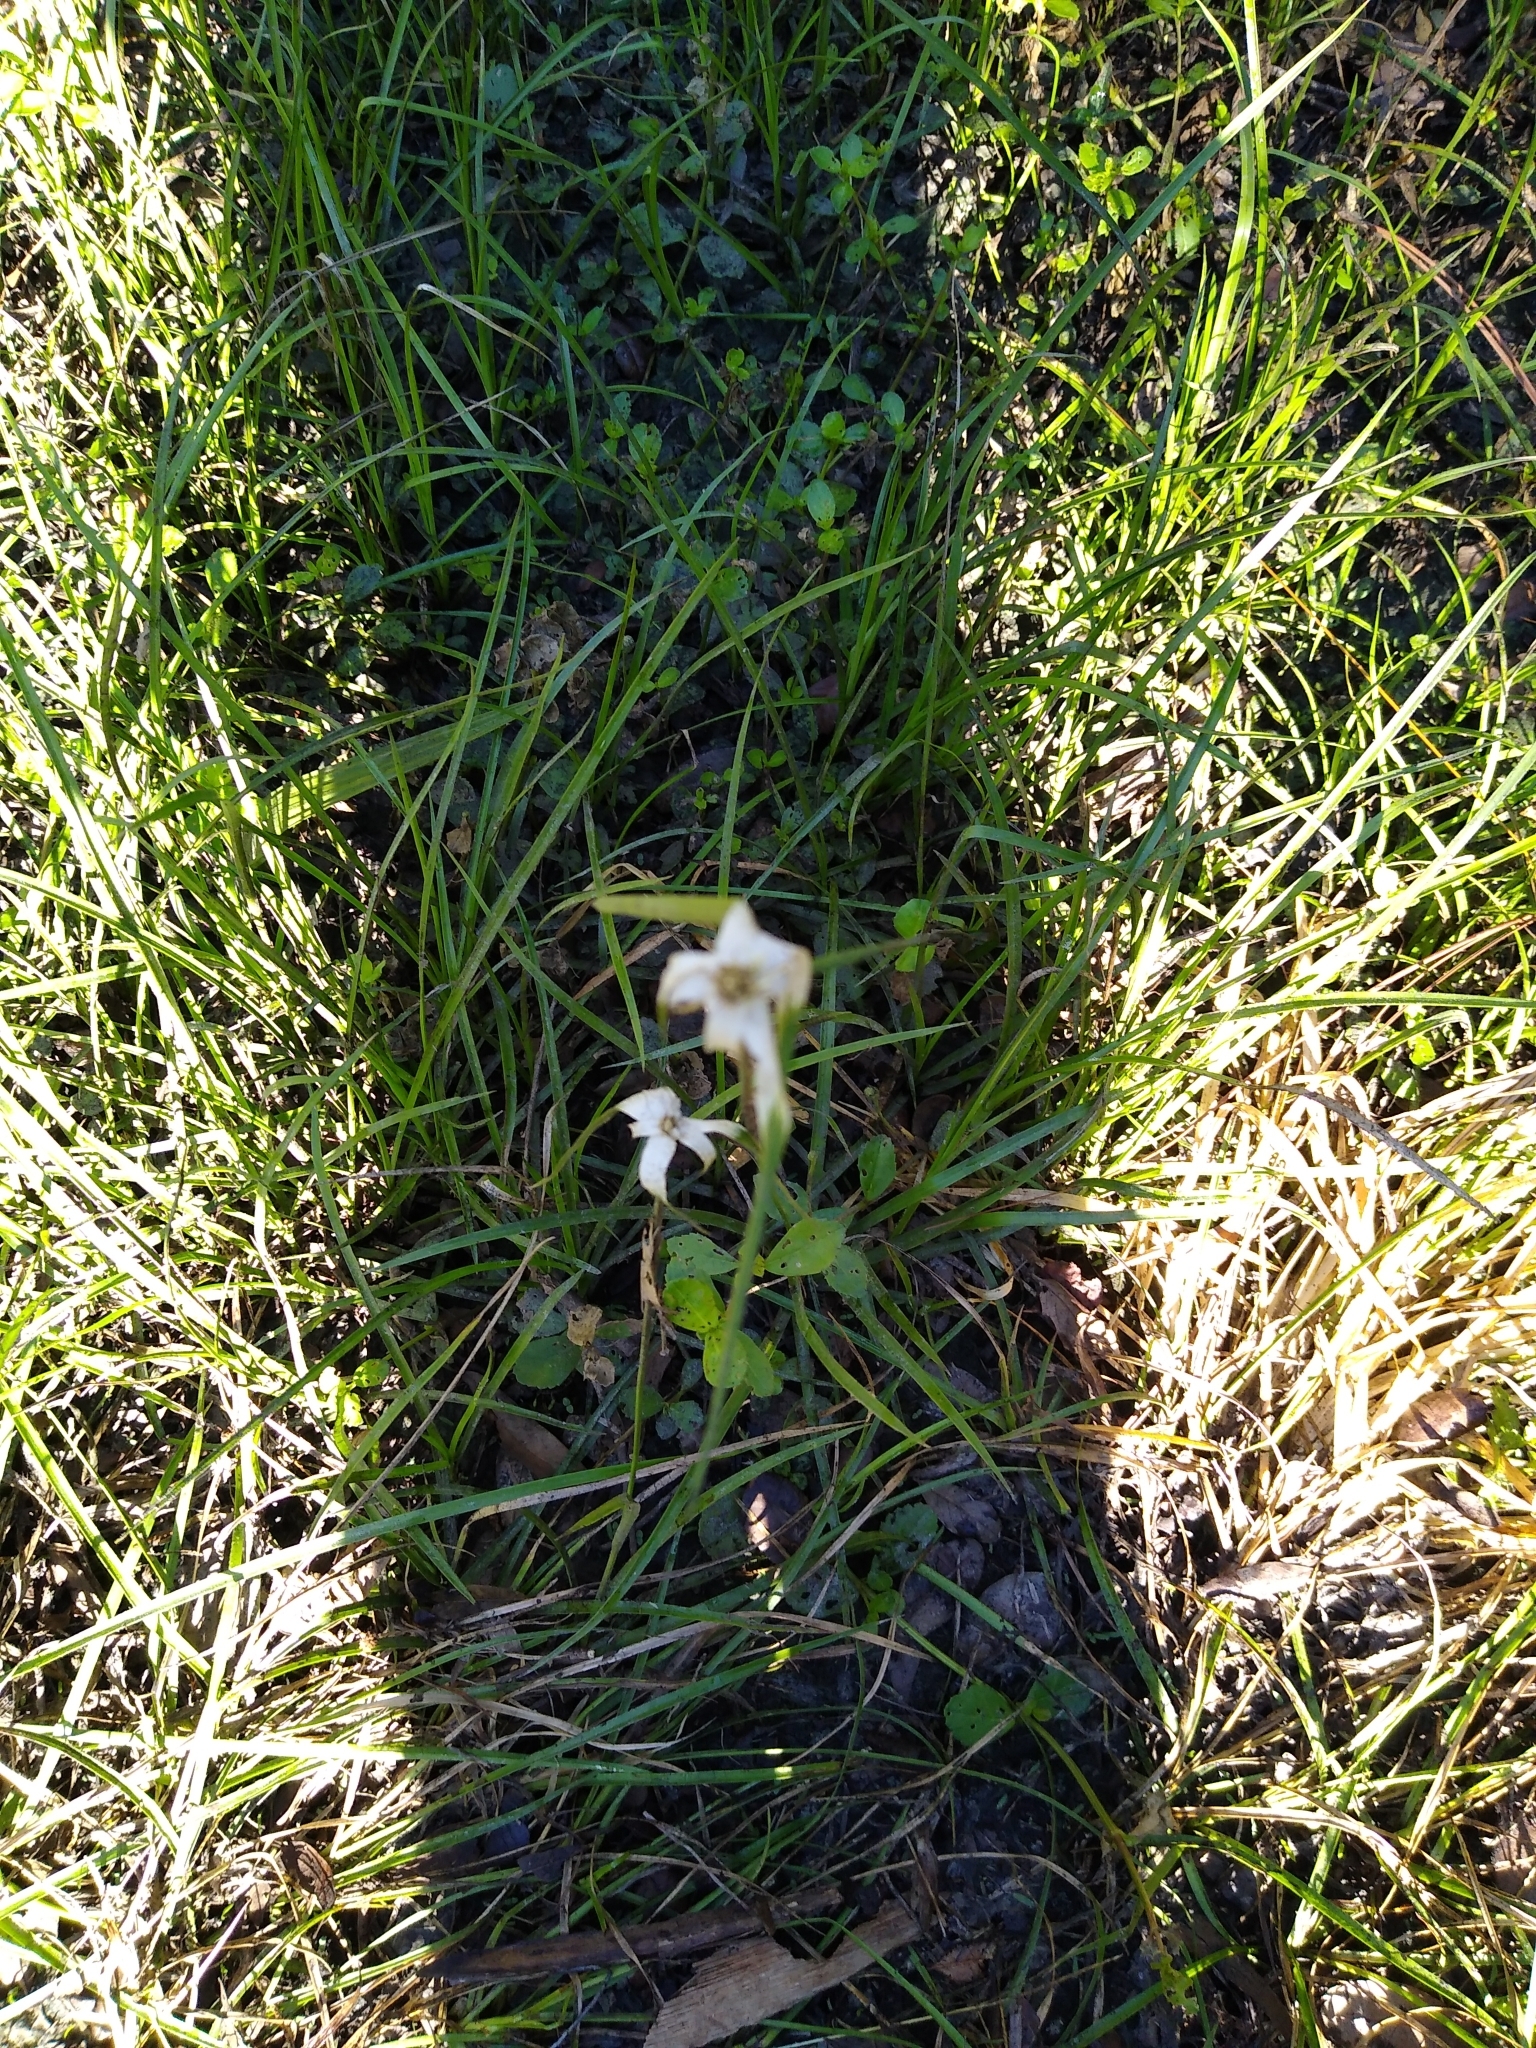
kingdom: Plantae
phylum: Tracheophyta
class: Liliopsida
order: Poales
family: Cyperaceae
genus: Rhynchospora
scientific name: Rhynchospora colorata
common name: Star sedge
